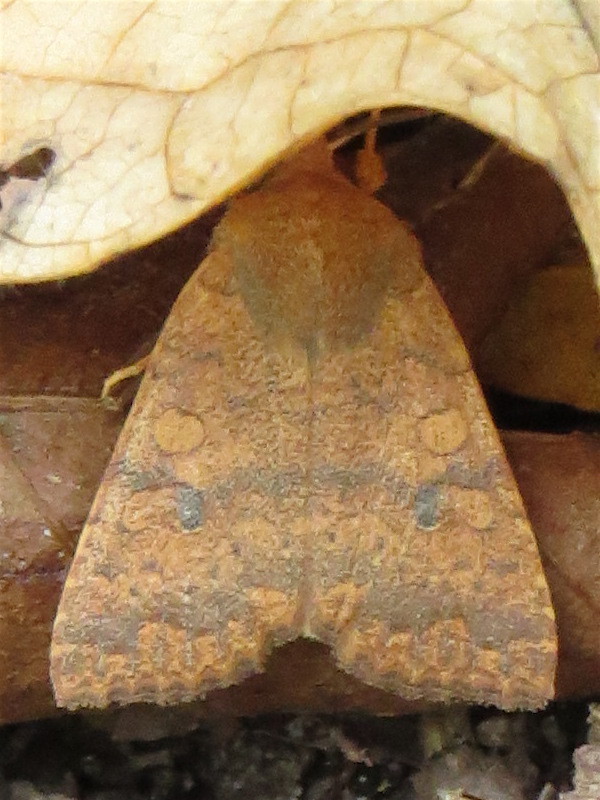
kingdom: Animalia
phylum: Arthropoda
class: Insecta
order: Lepidoptera
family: Noctuidae
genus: Agrochola
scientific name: Agrochola bicolorago
